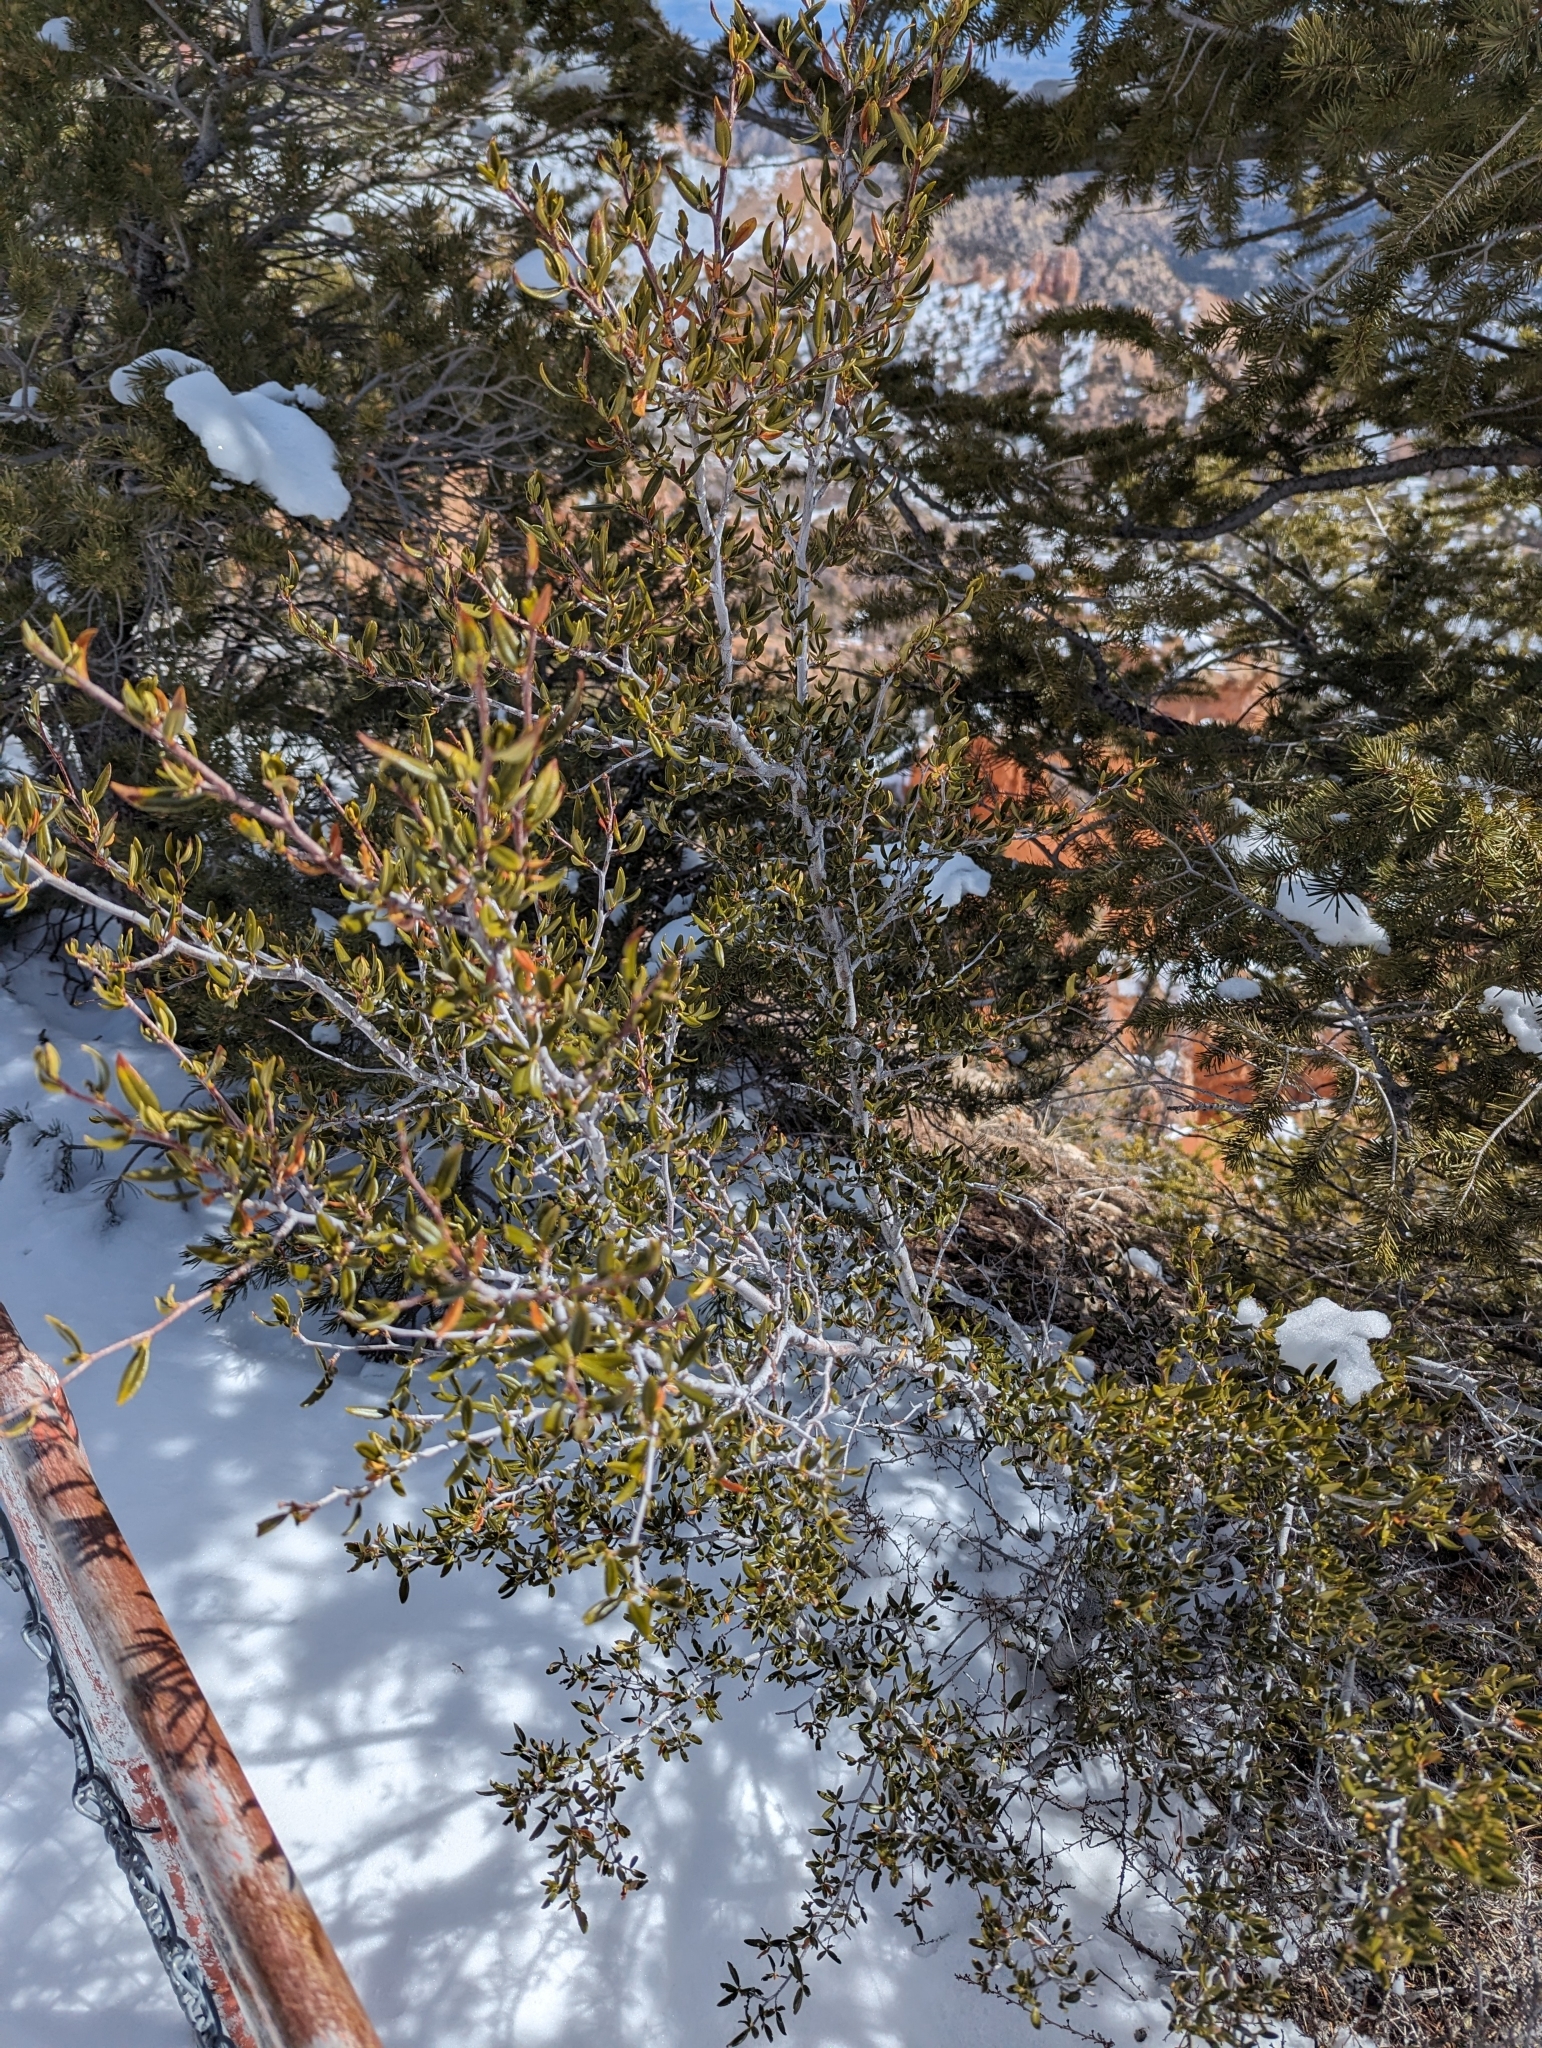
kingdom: Plantae
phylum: Tracheophyta
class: Magnoliopsida
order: Rosales
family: Rosaceae
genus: Cercocarpus
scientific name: Cercocarpus ledifolius
